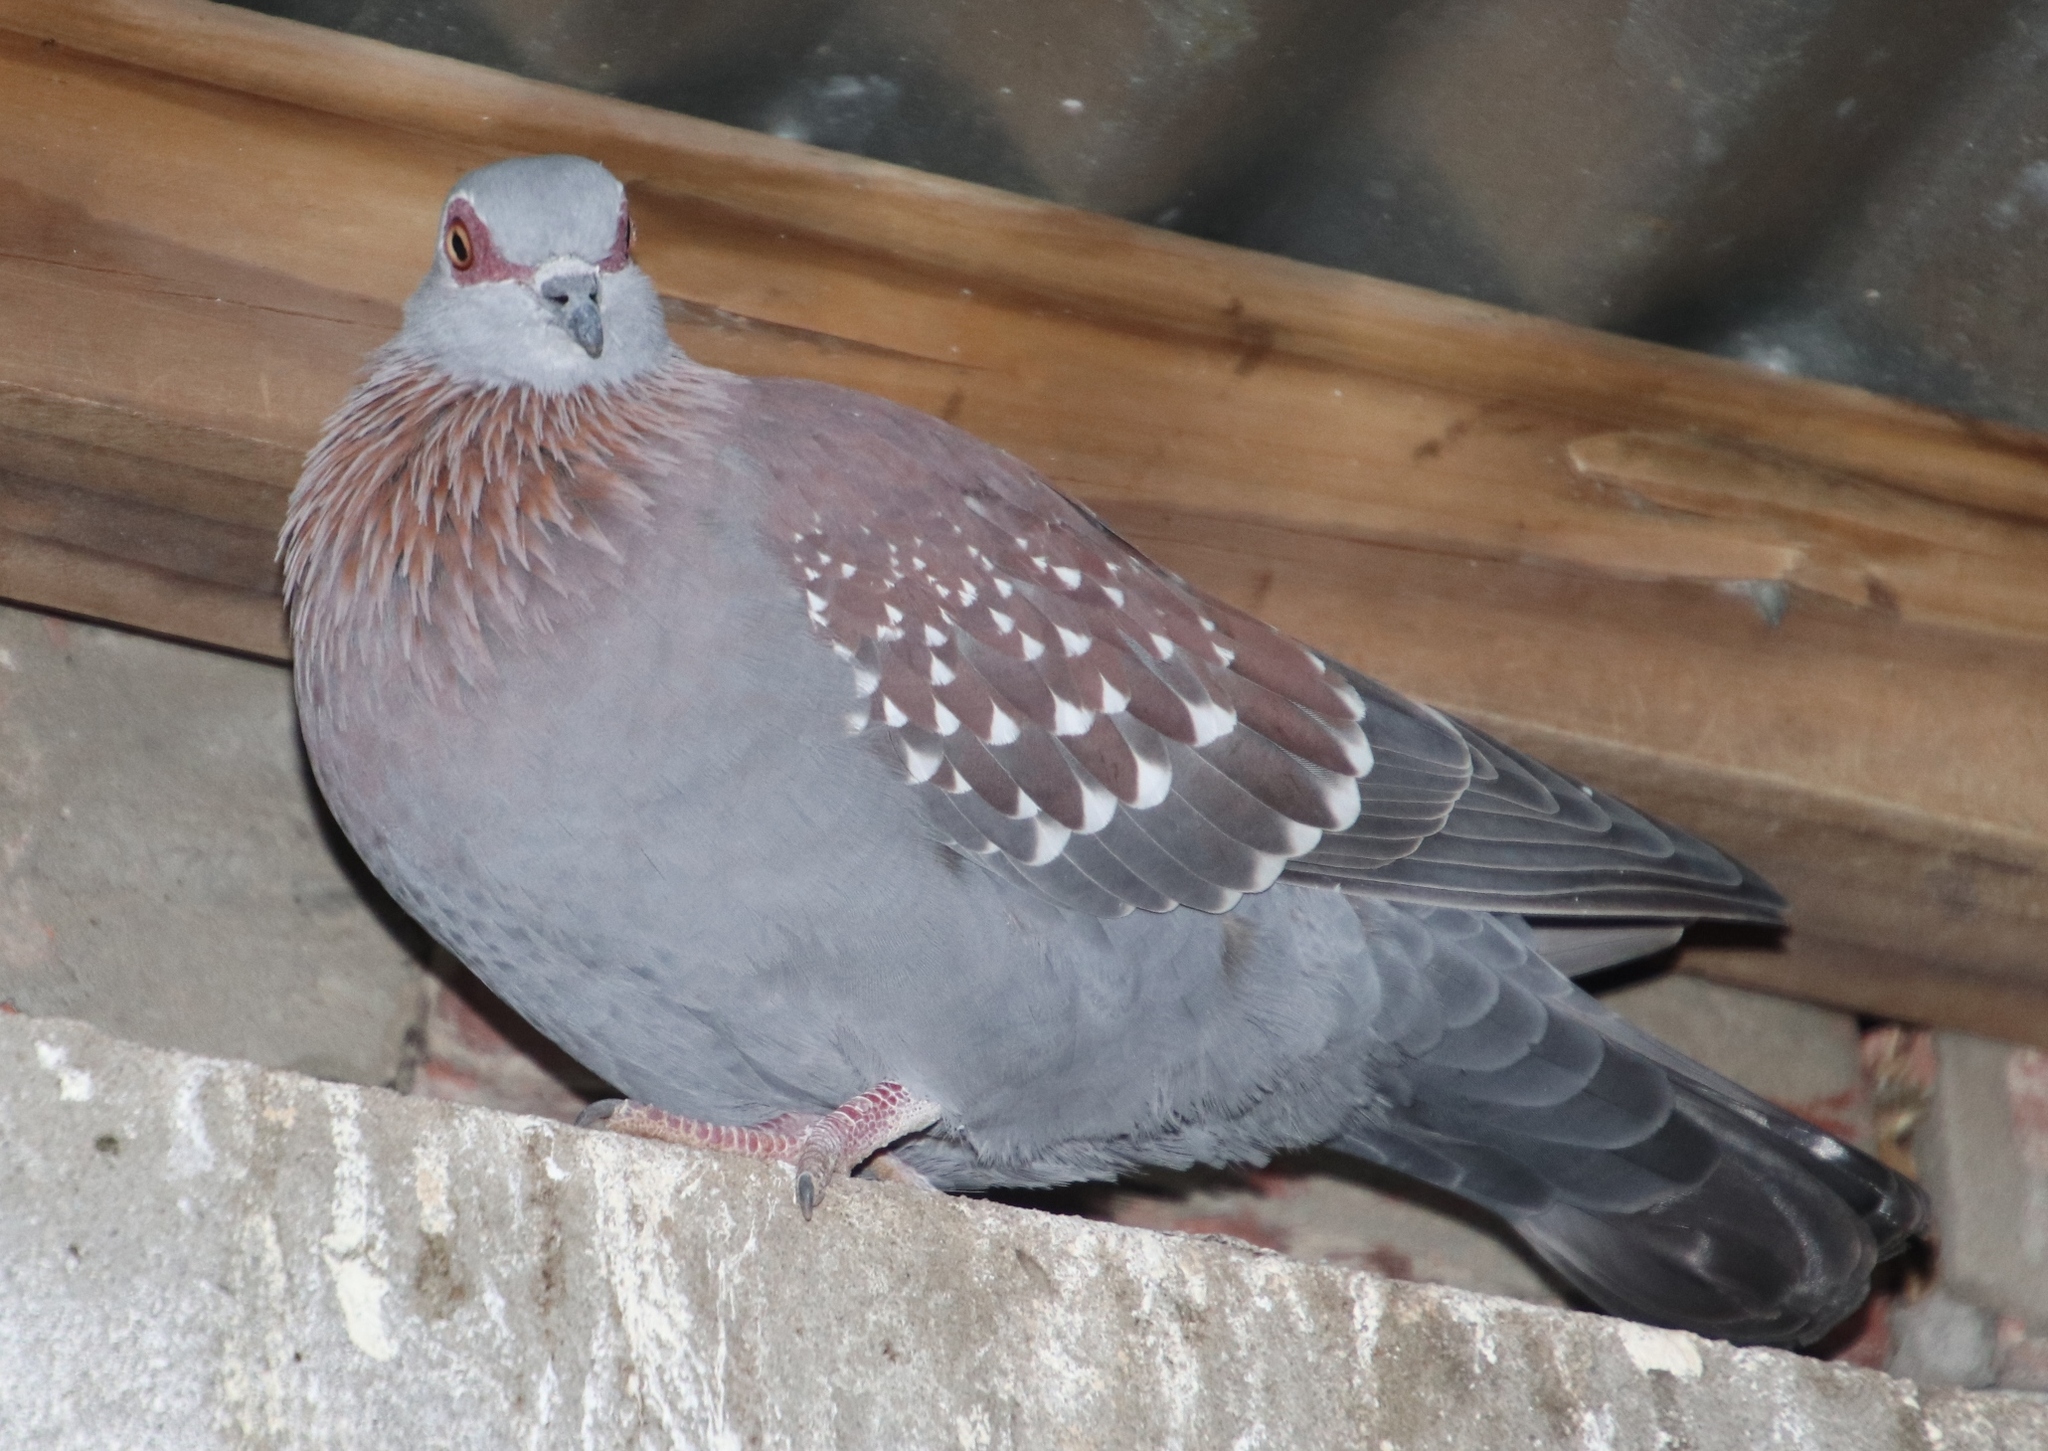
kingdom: Animalia
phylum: Chordata
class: Aves
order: Columbiformes
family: Columbidae
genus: Columba
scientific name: Columba guinea
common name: Speckled pigeon
